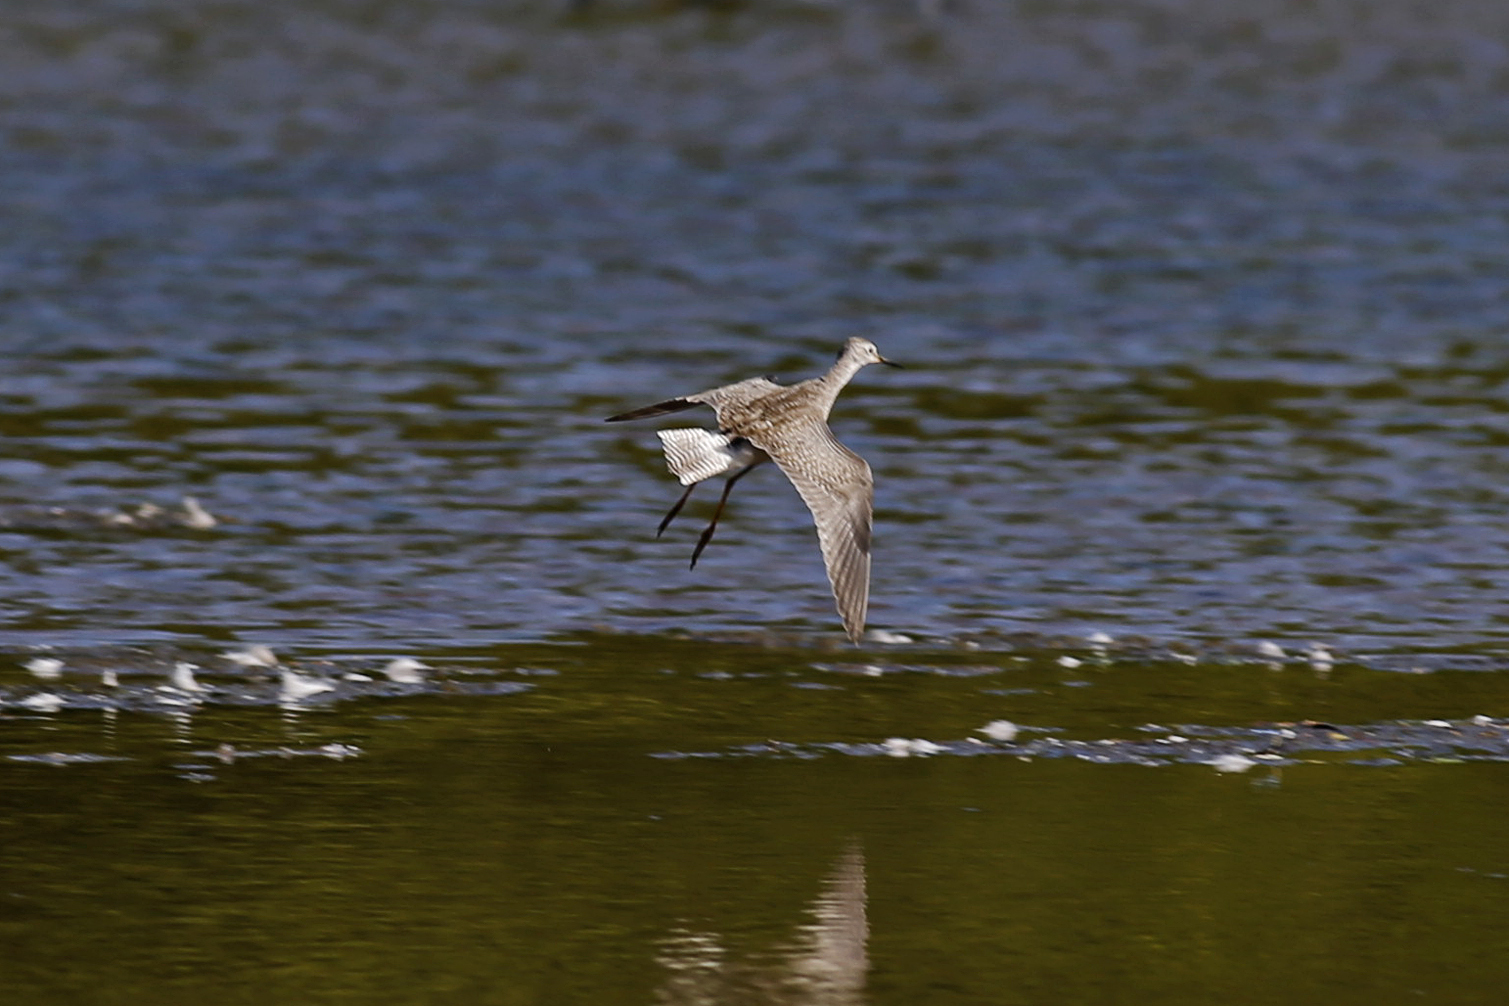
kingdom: Animalia
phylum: Chordata
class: Aves
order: Charadriiformes
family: Scolopacidae
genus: Tringa
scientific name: Tringa flavipes
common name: Lesser yellowlegs
